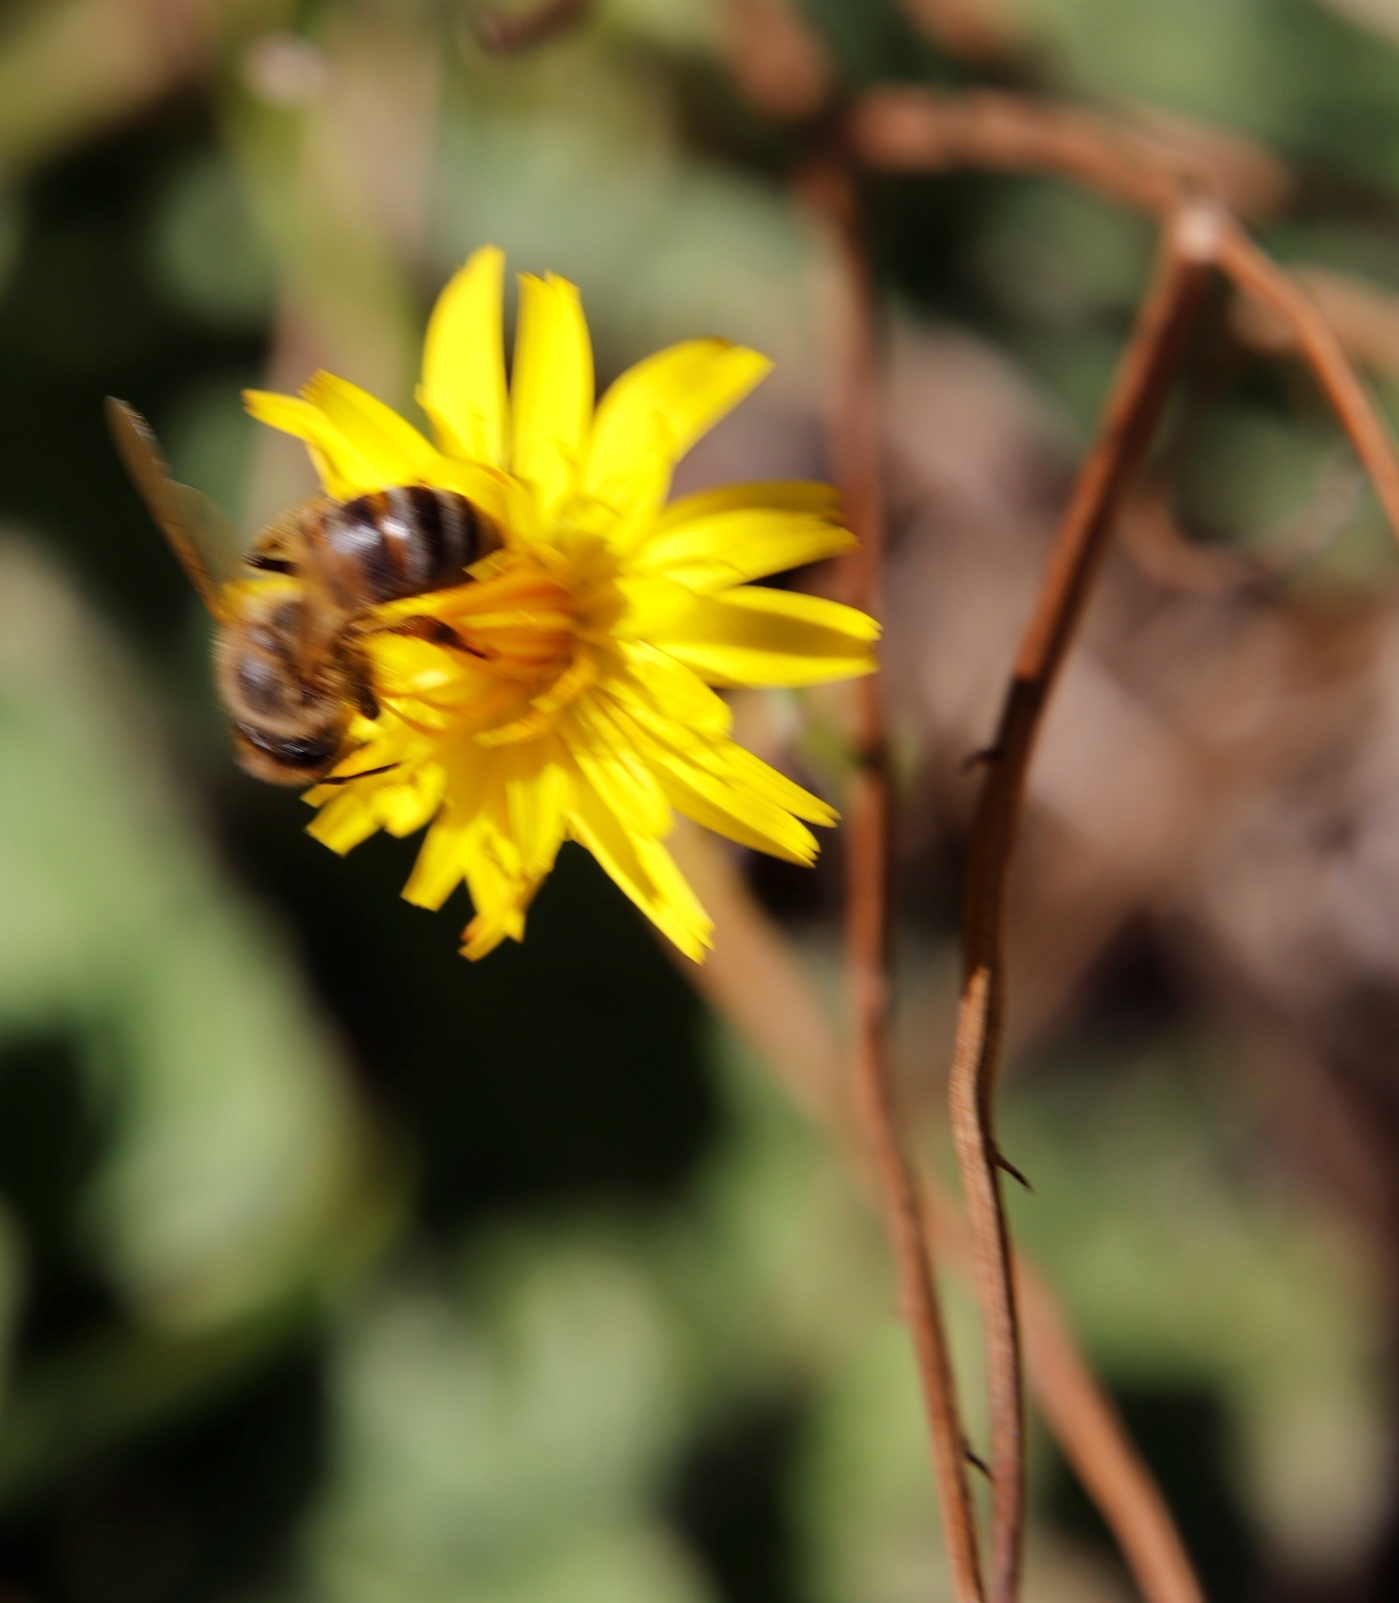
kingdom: Plantae
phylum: Tracheophyta
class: Magnoliopsida
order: Asterales
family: Asteraceae
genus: Hypochaeris
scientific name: Hypochaeris radicata
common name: Flatweed
